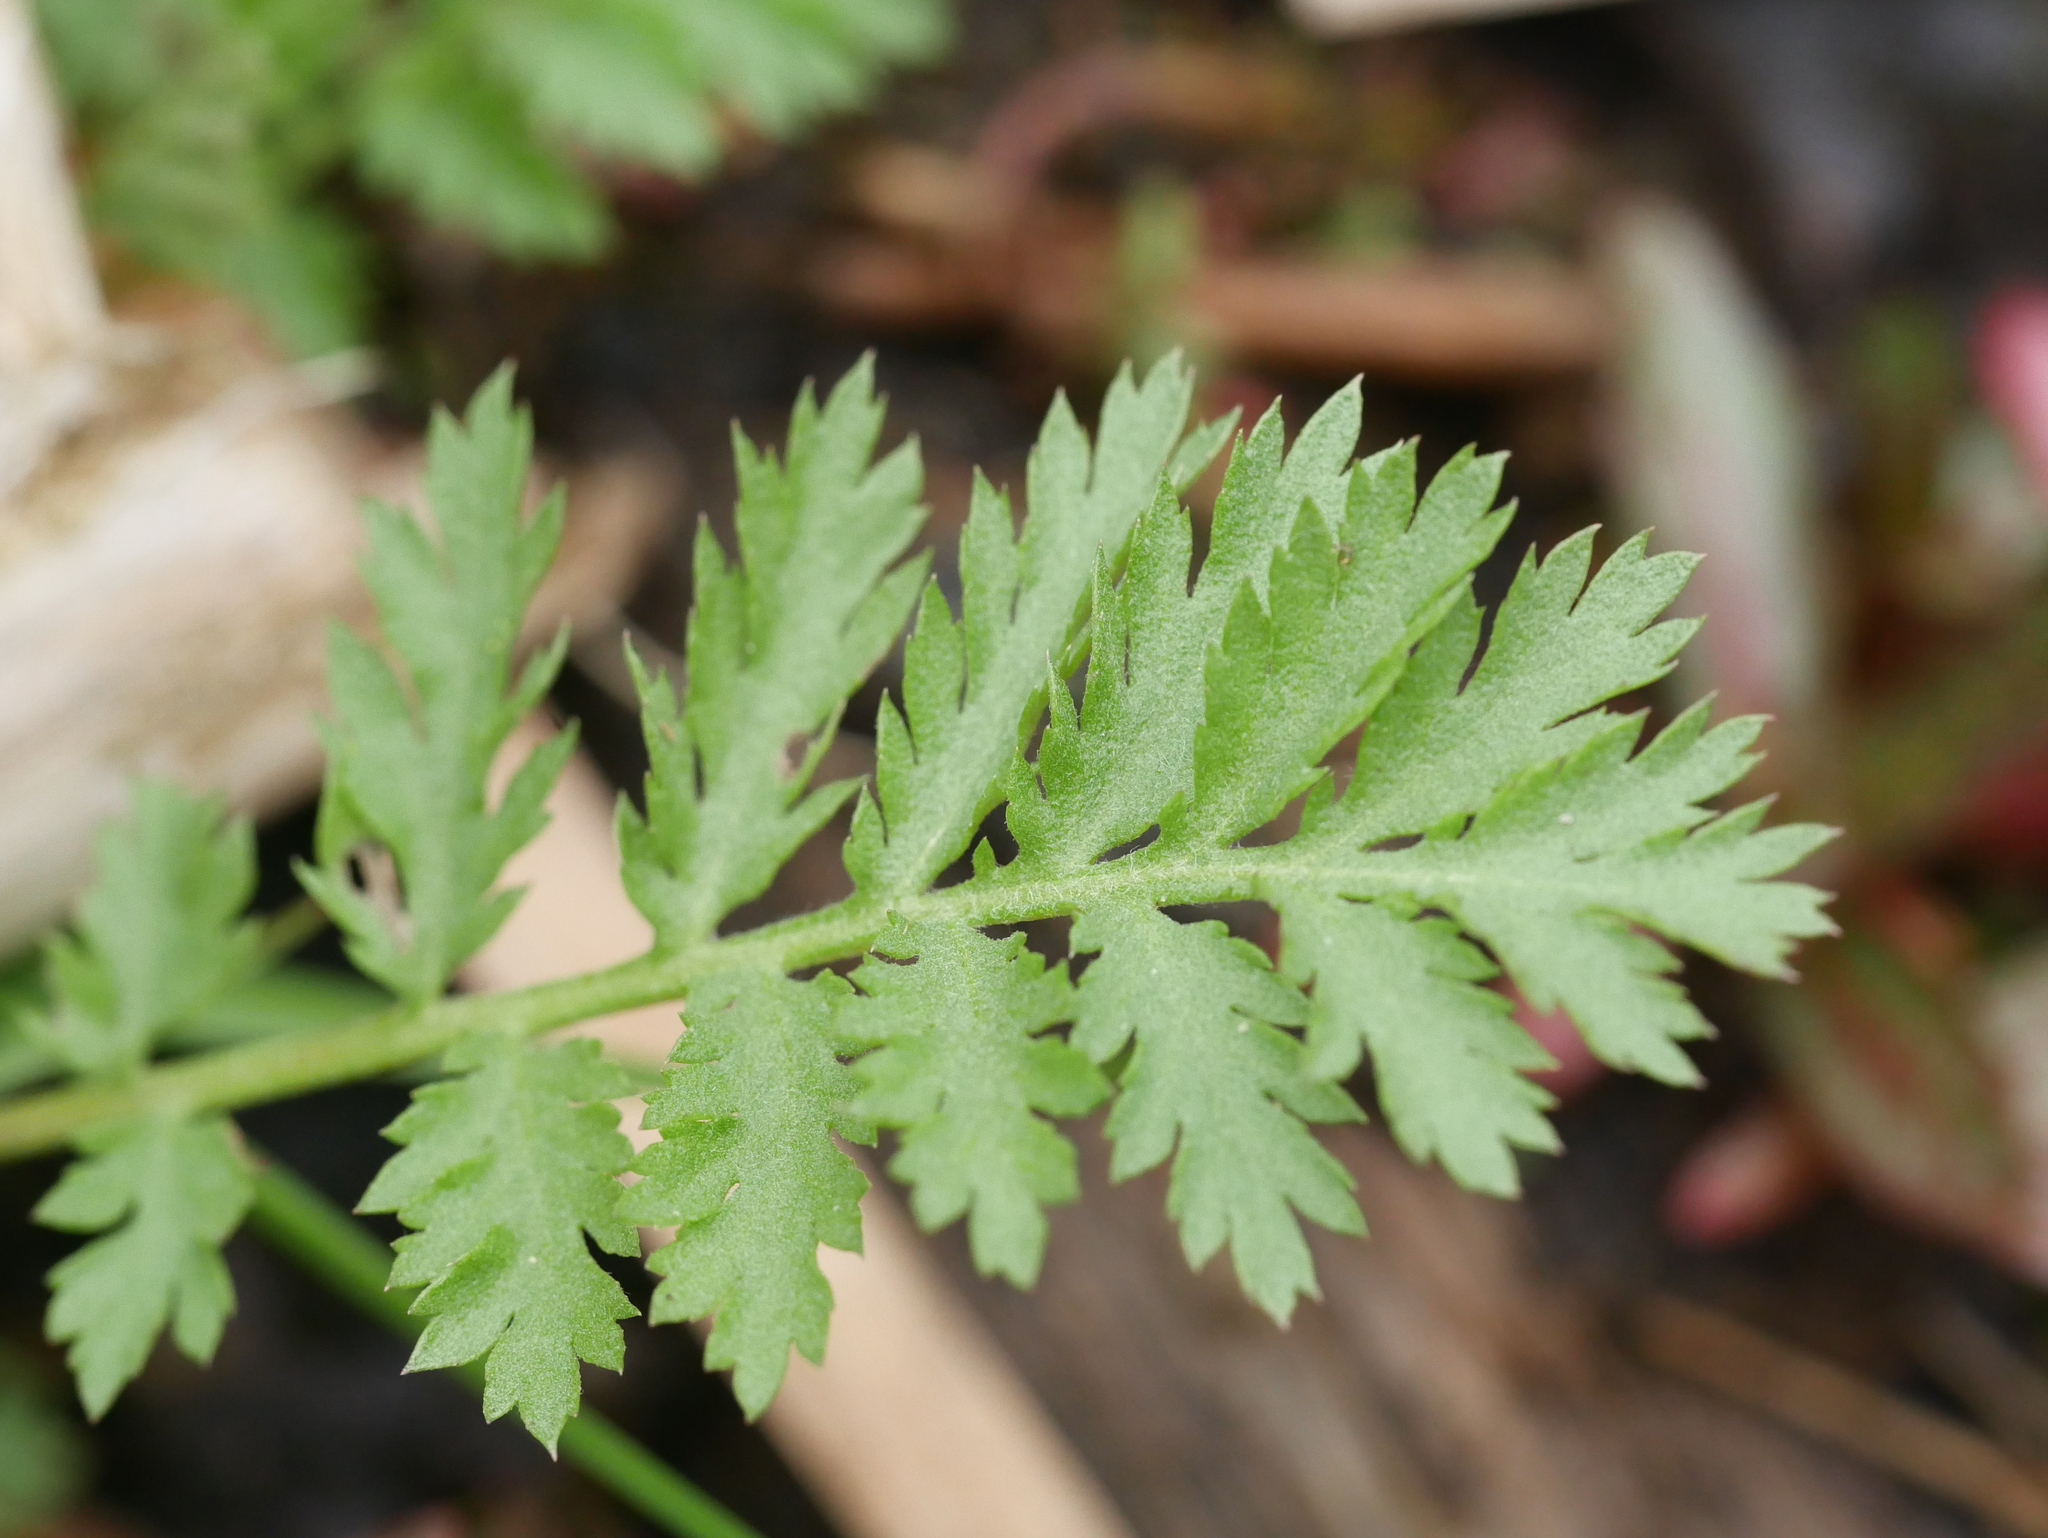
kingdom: Plantae
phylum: Tracheophyta
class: Magnoliopsida
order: Asterales
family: Asteraceae
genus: Tanacetum
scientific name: Tanacetum vulgare
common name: Common tansy
